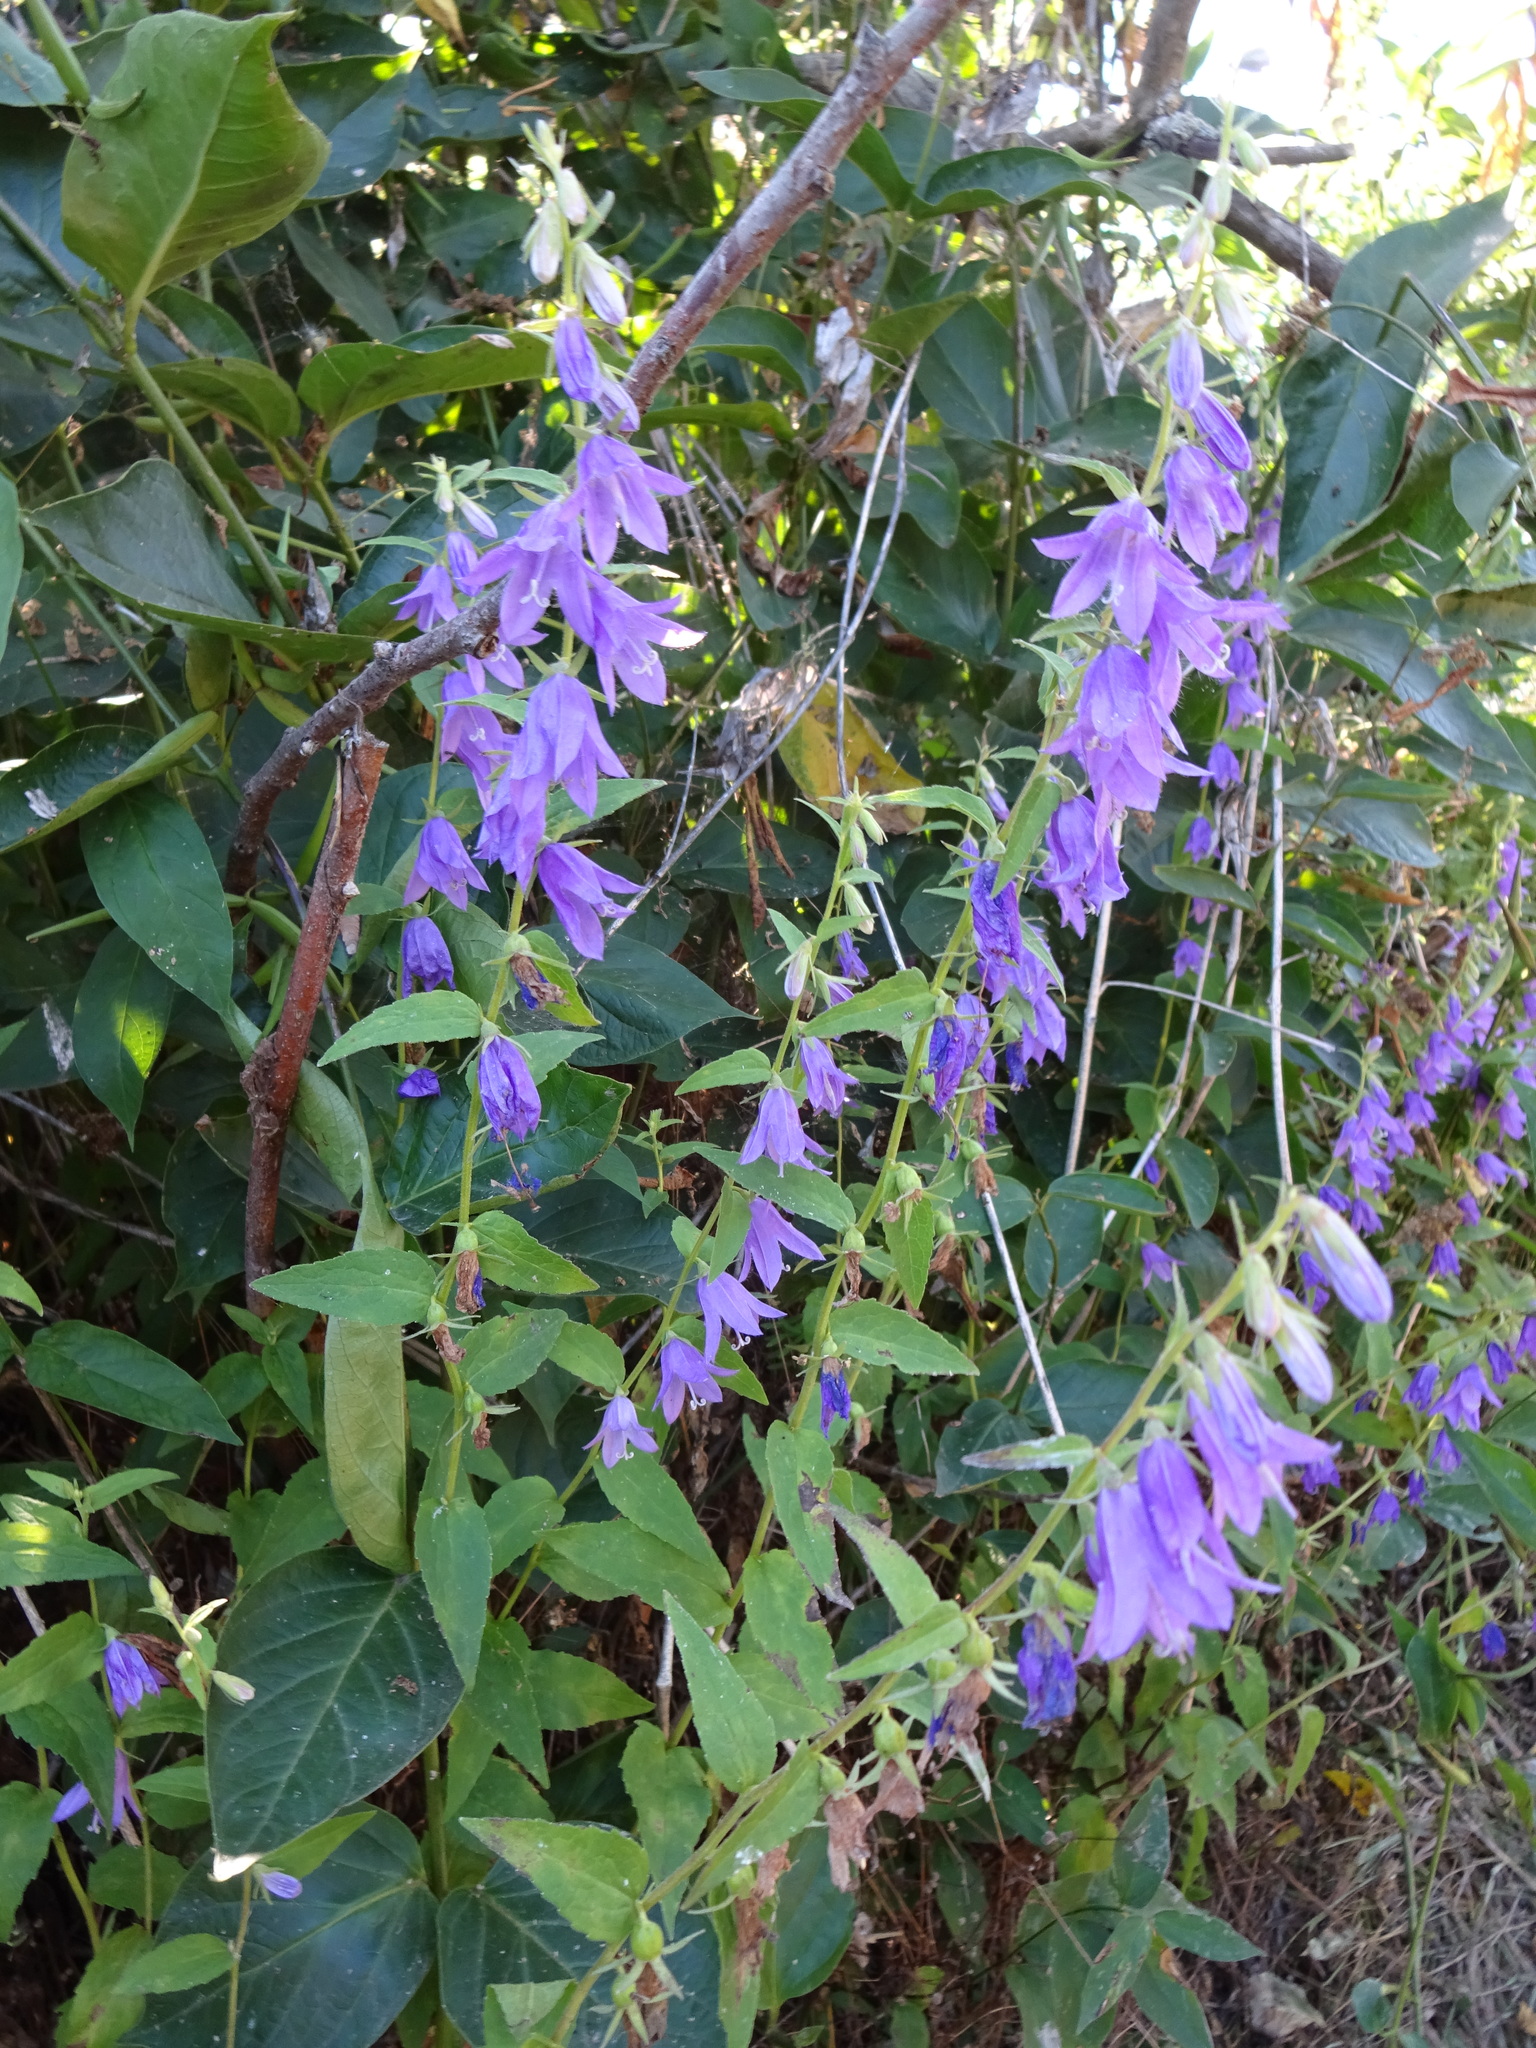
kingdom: Plantae
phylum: Tracheophyta
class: Magnoliopsida
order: Asterales
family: Campanulaceae
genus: Campanula
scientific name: Campanula rapunculoides
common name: Creeping bellflower
